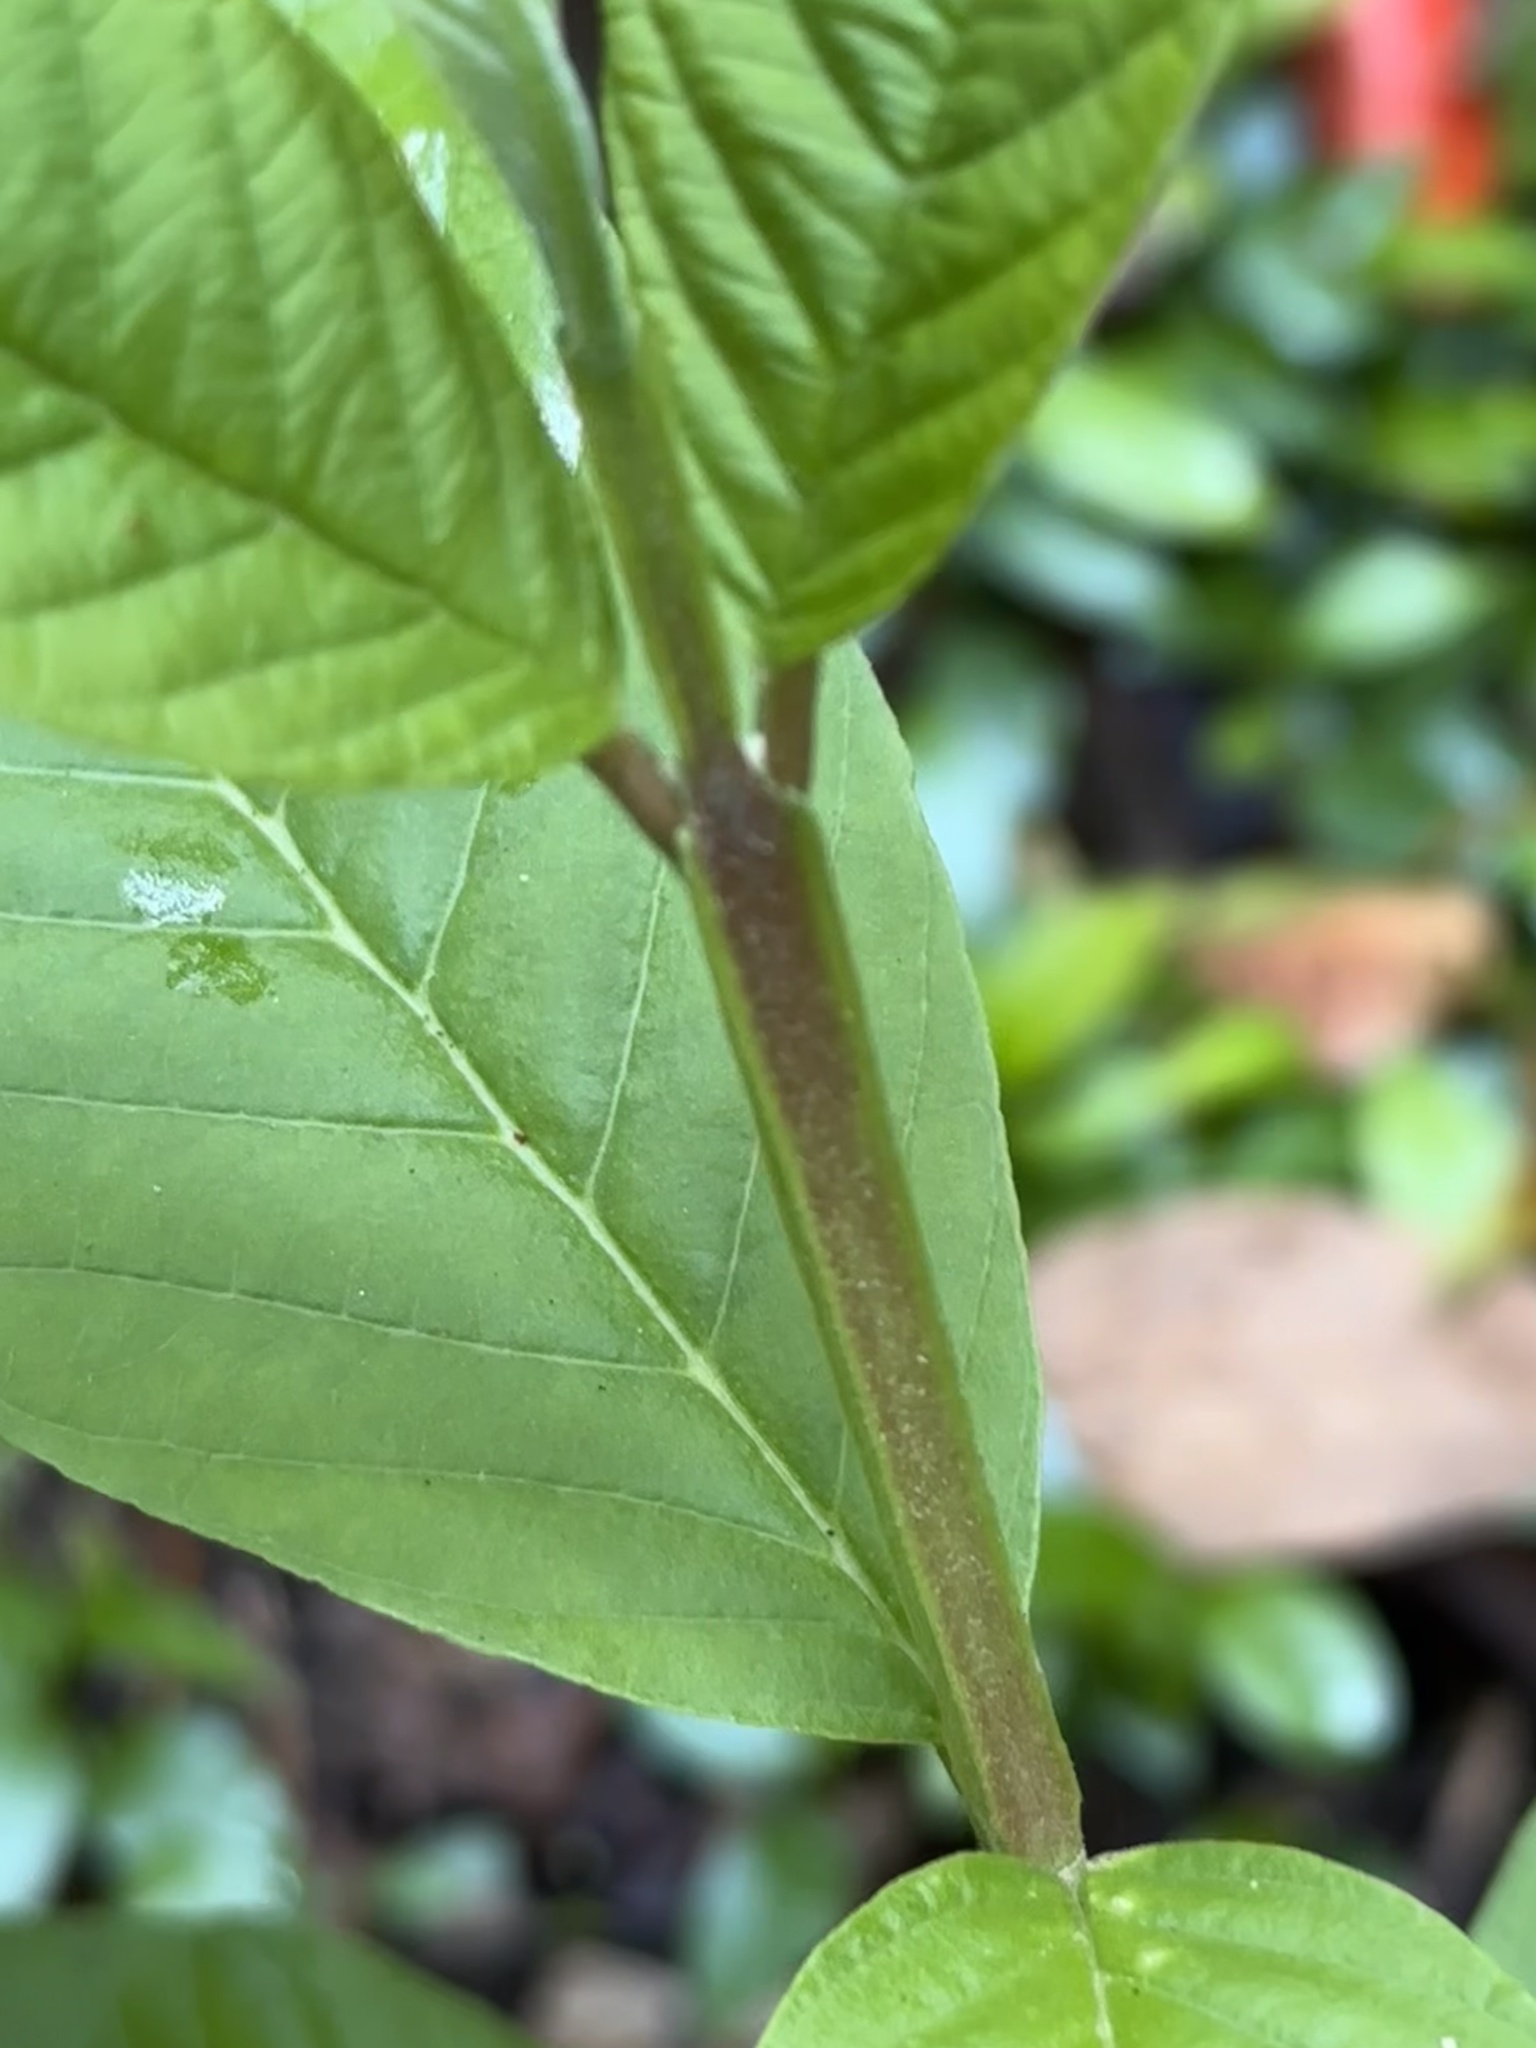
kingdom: Plantae
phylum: Tracheophyta
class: Magnoliopsida
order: Myrtales
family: Myrtaceae
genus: Psidium
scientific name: Psidium guajava
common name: Guava
